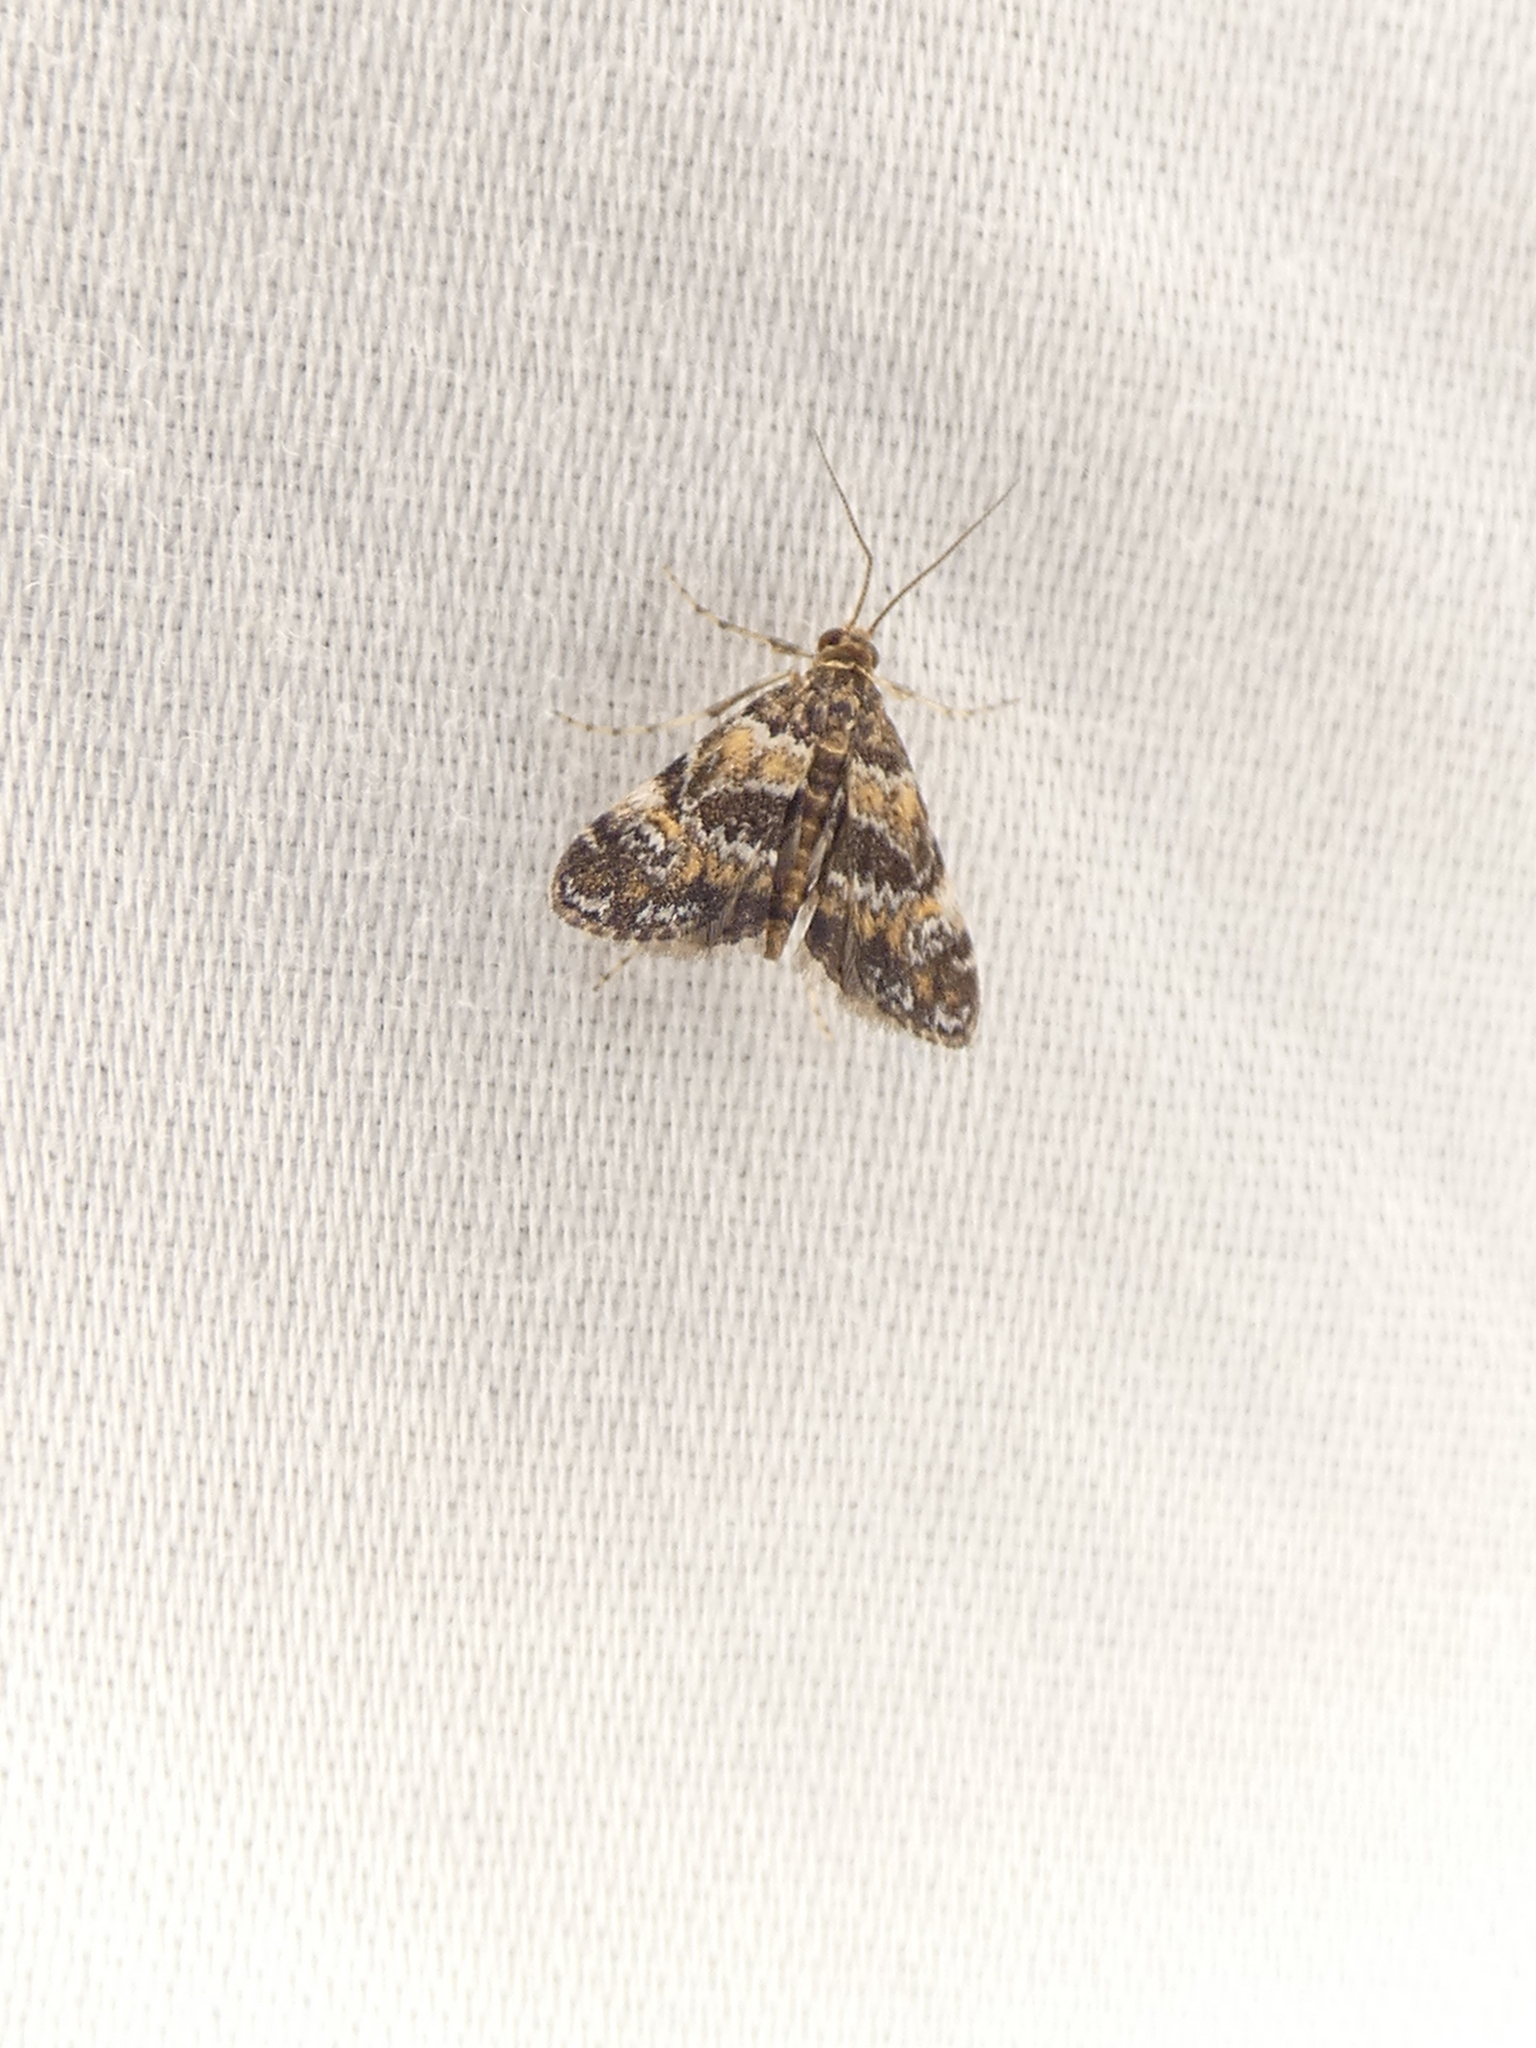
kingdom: Animalia
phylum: Arthropoda
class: Insecta
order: Lepidoptera
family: Crambidae
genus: Elophila
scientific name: Elophila obliteralis
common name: Waterlily leafcutter moth
